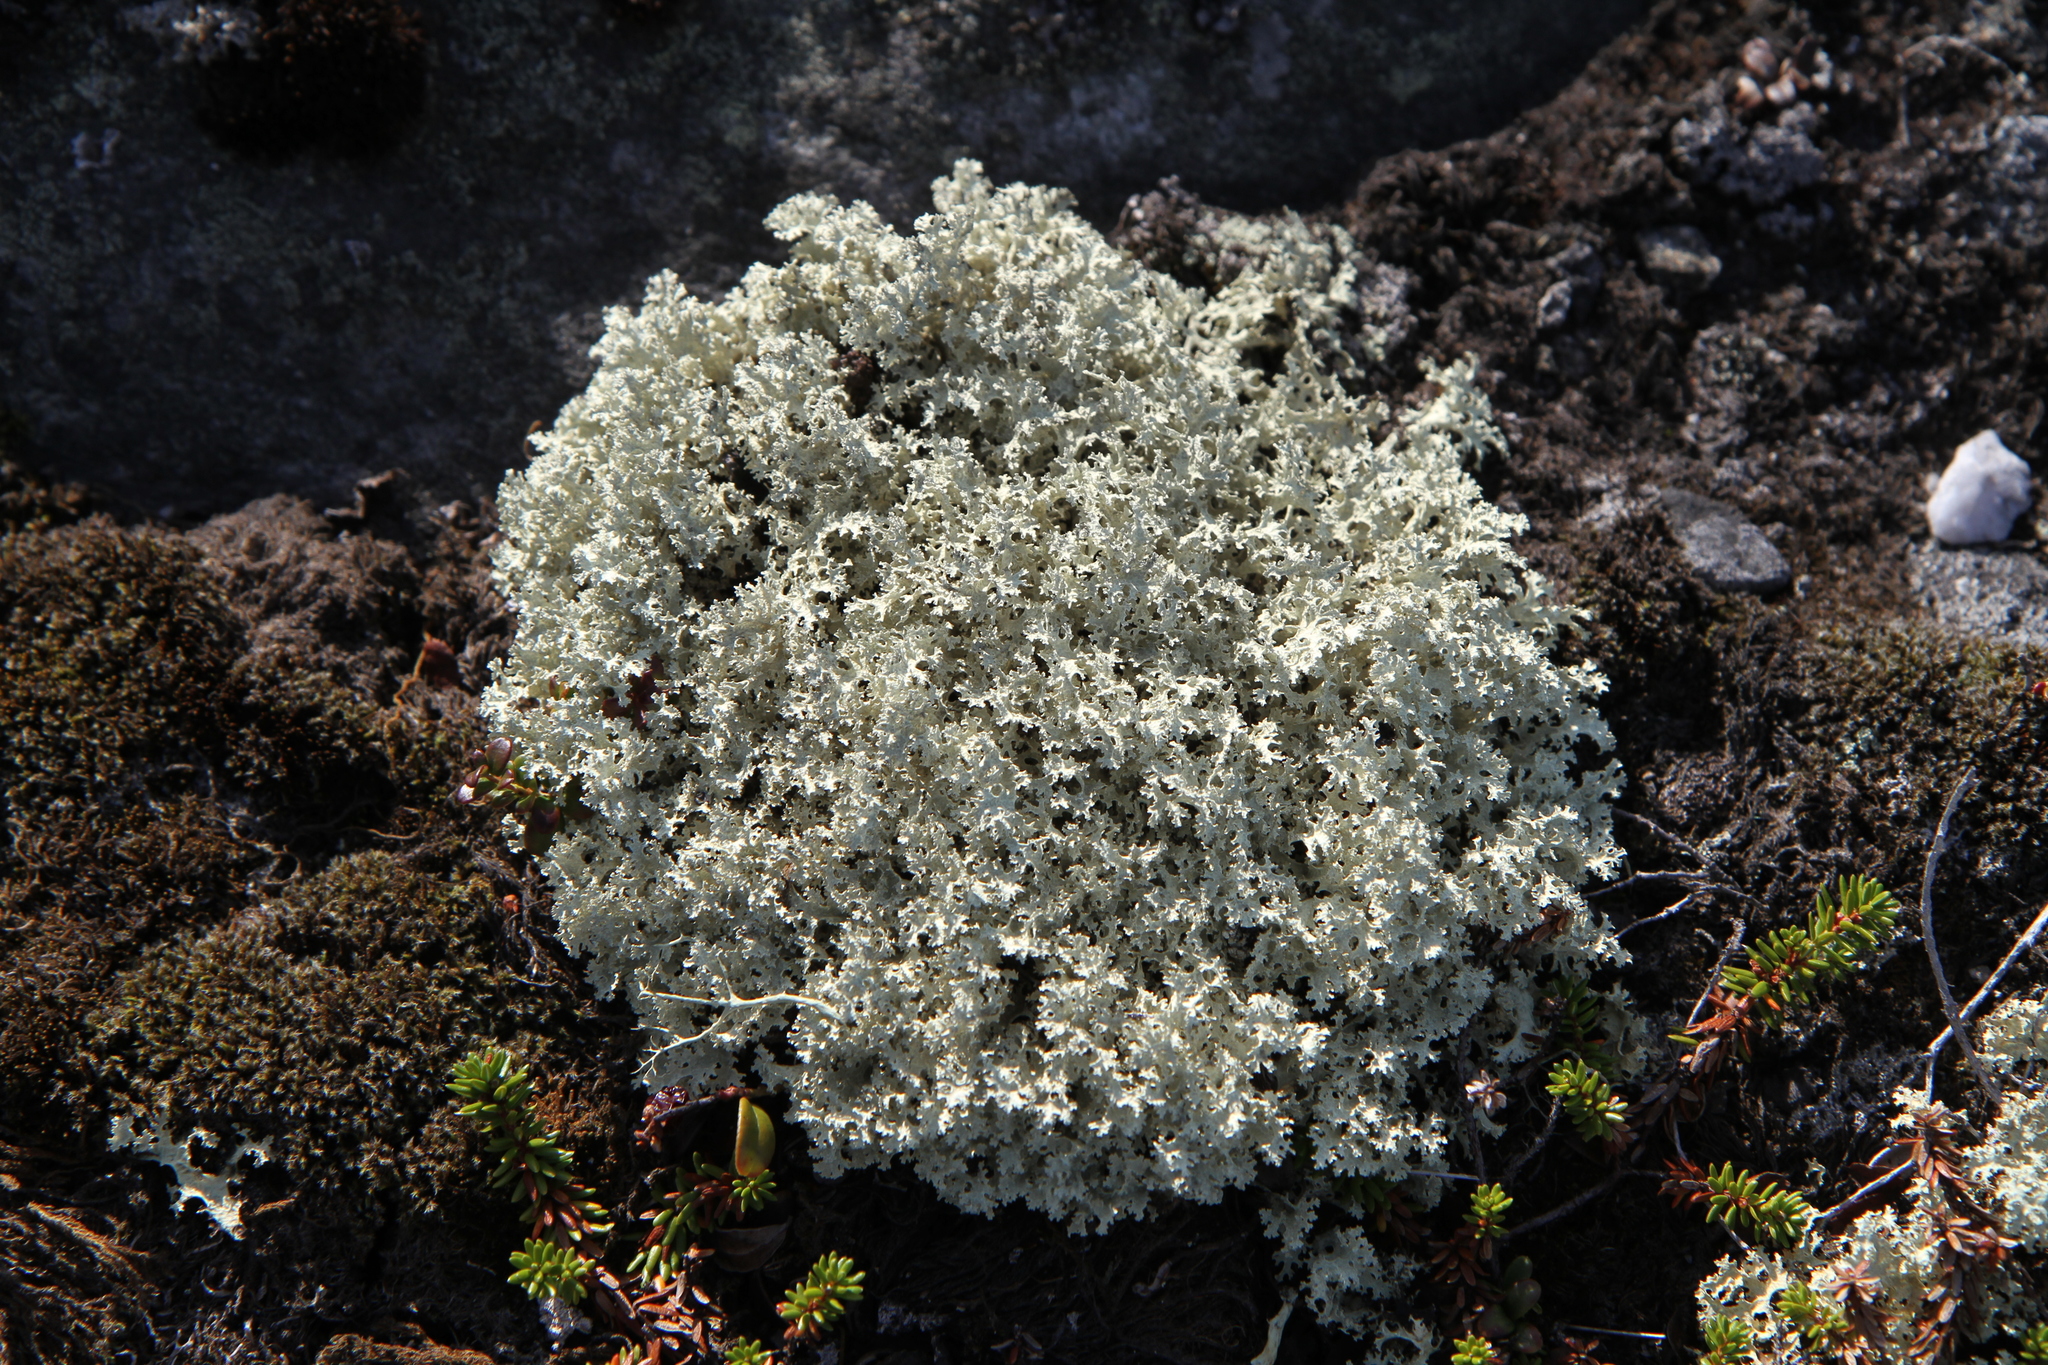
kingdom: Fungi
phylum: Ascomycota
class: Lecanoromycetes
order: Lecanorales
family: Parmeliaceae
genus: Nephromopsis
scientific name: Nephromopsis nivalis
